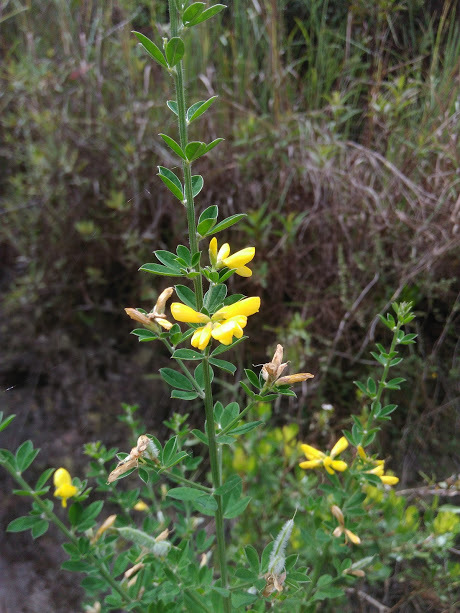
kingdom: Plantae
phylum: Tracheophyta
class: Magnoliopsida
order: Fabales
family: Fabaceae
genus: Genista
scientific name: Genista monspessulana
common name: Montpellier broom
